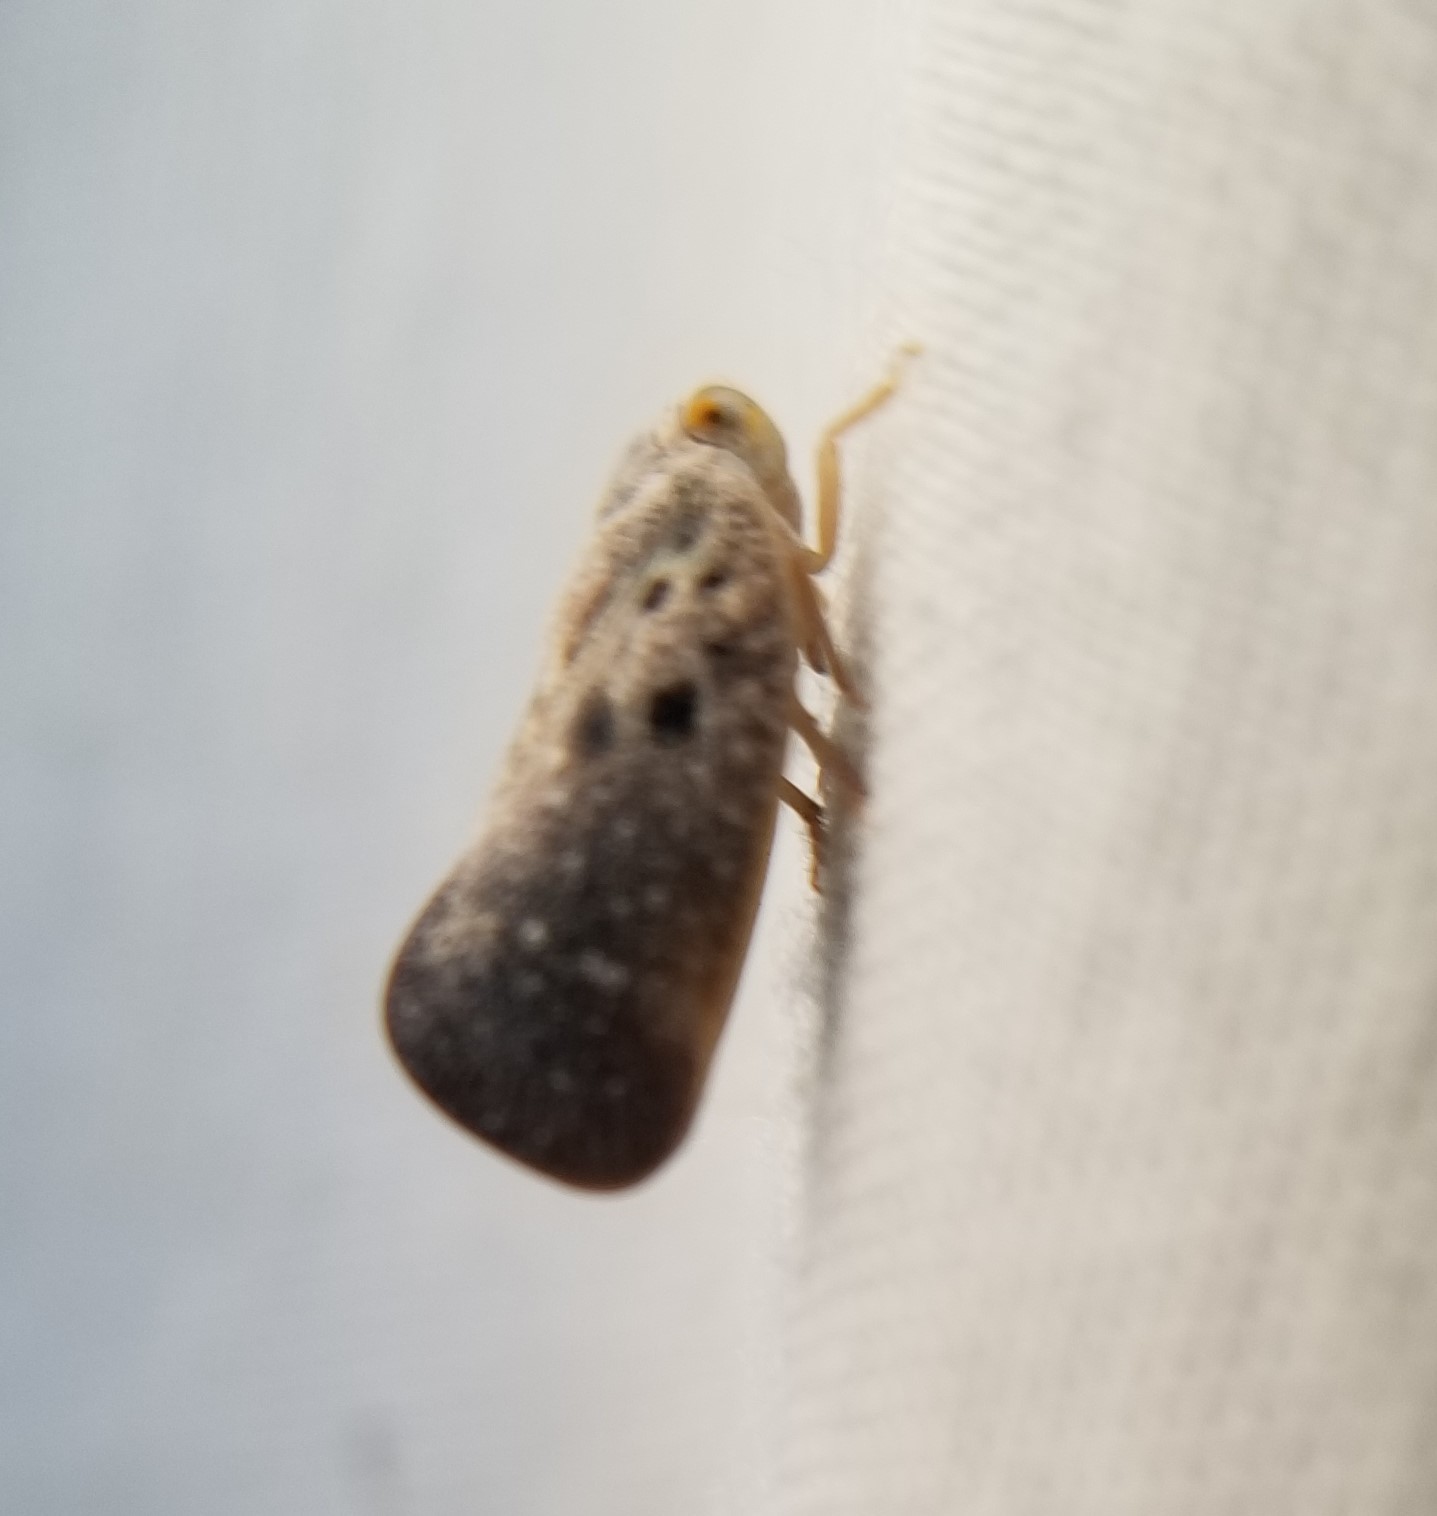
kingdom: Animalia
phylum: Arthropoda
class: Insecta
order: Hemiptera
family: Flatidae
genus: Metcalfa
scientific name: Metcalfa pruinosa
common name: Citrus flatid planthopper
